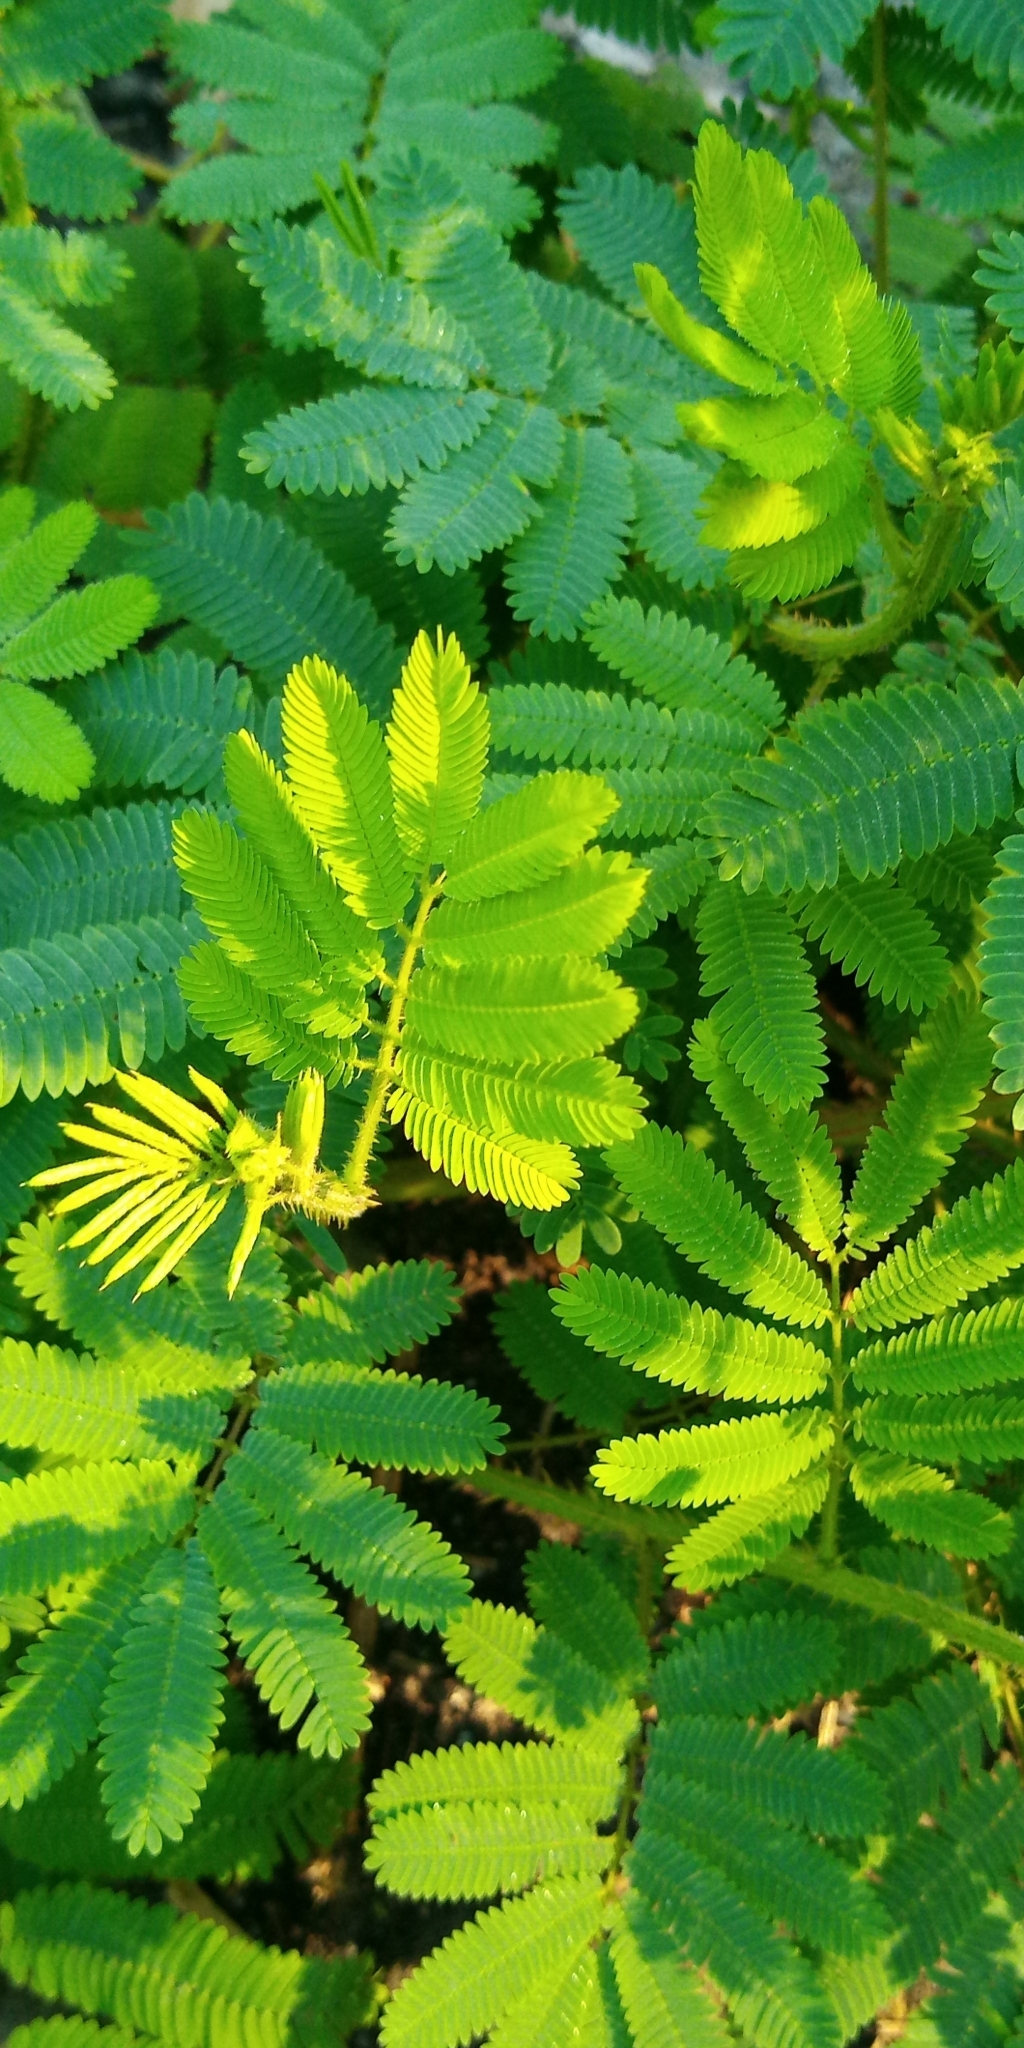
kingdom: Plantae
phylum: Tracheophyta
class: Magnoliopsida
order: Fabales
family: Fabaceae
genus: Mimosa
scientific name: Mimosa diplotricha
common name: Giant sensitive-plant
